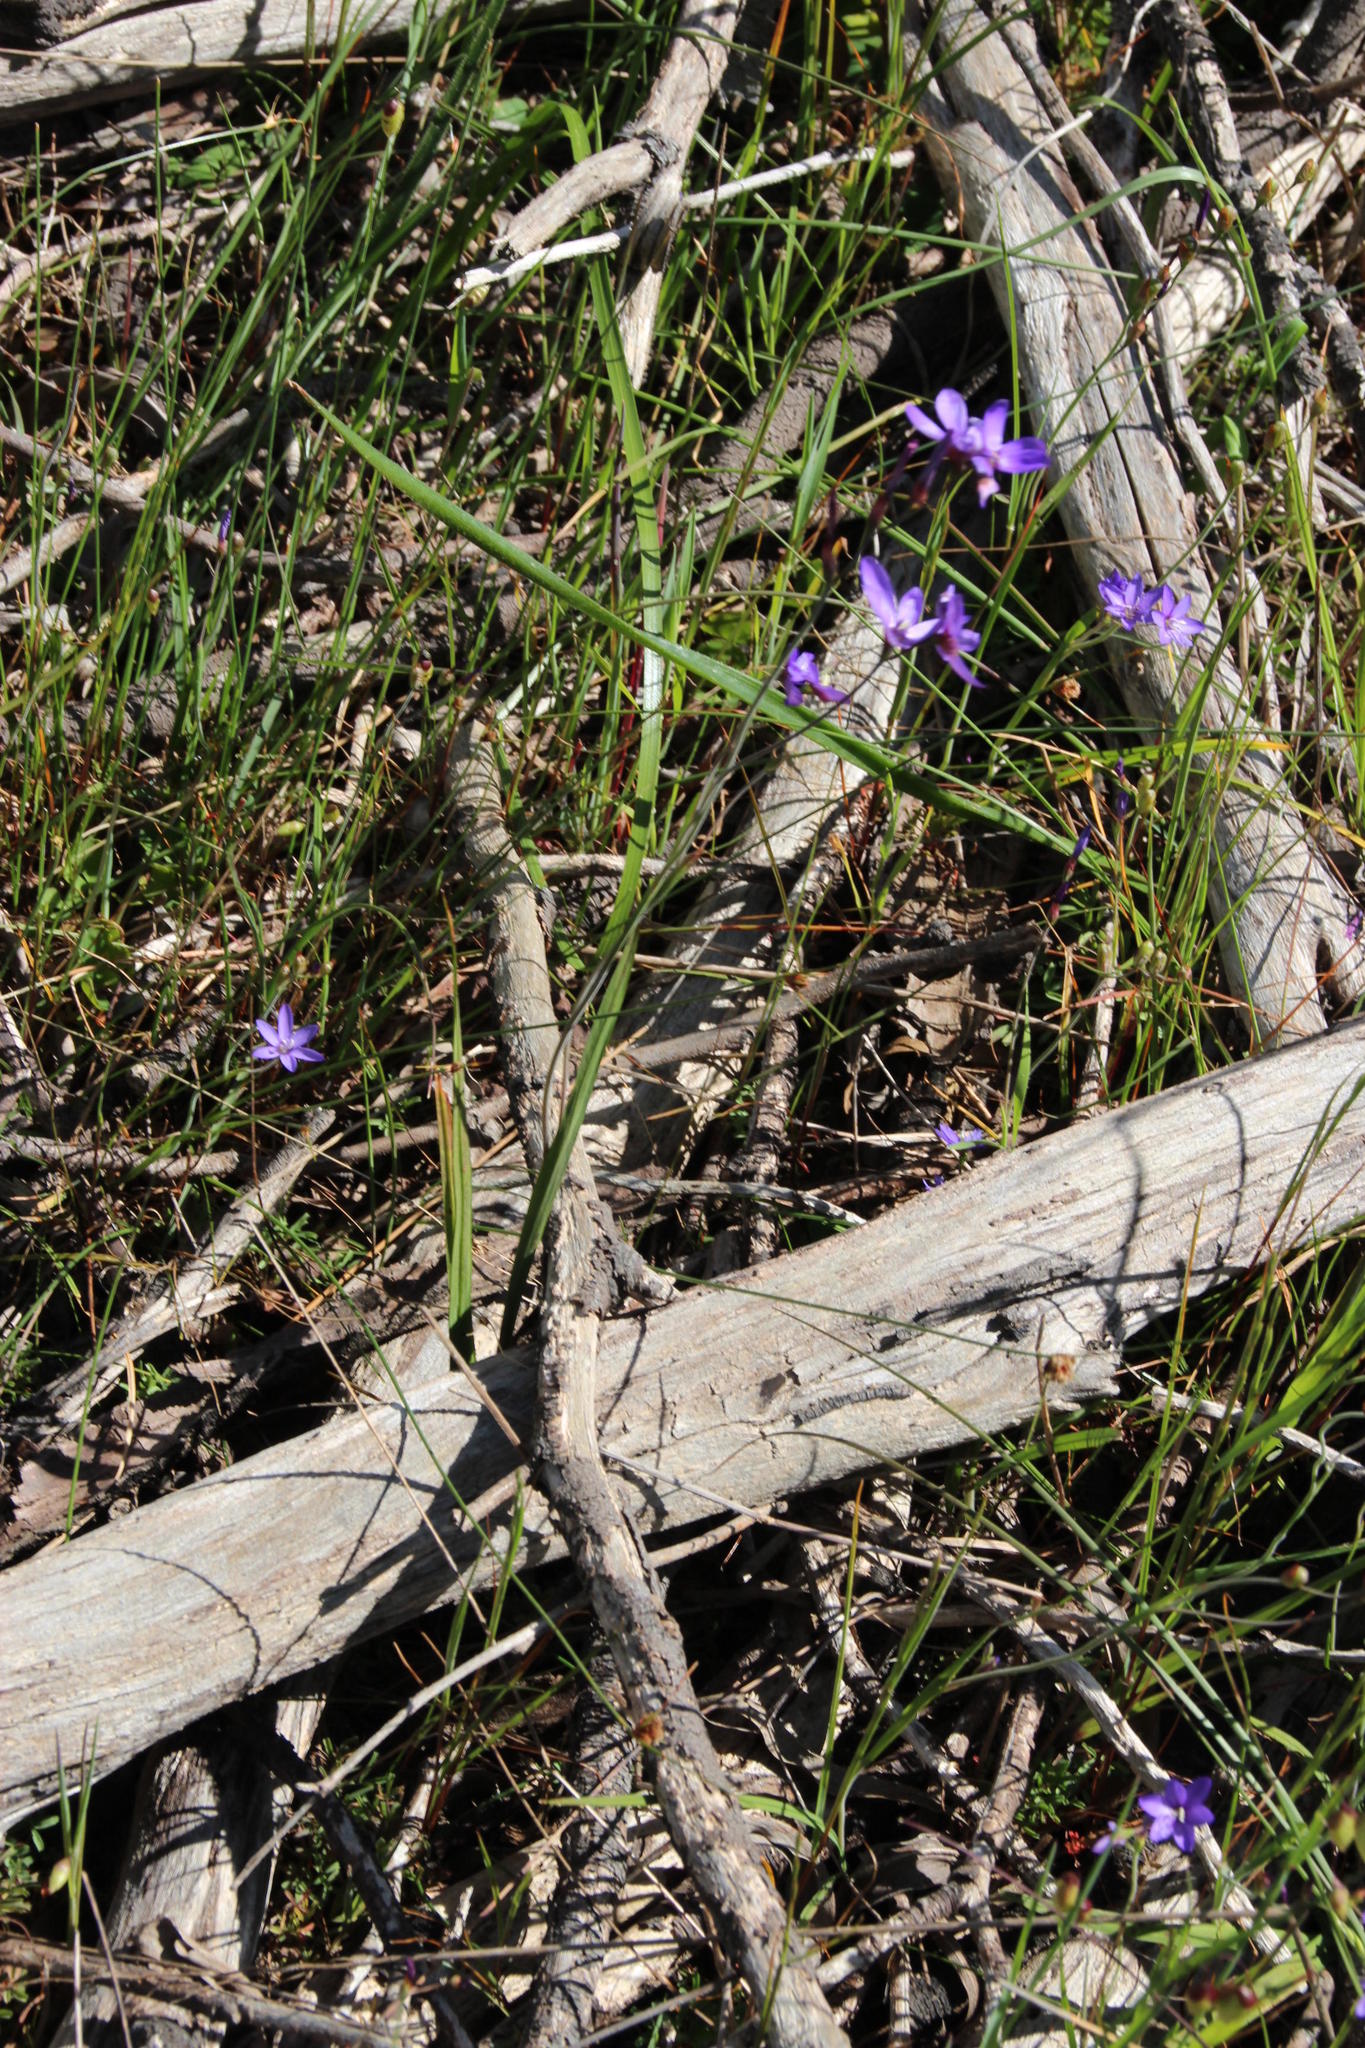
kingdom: Plantae
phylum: Tracheophyta
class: Liliopsida
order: Asparagales
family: Iridaceae
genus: Geissorhiza
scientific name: Geissorhiza aspera
